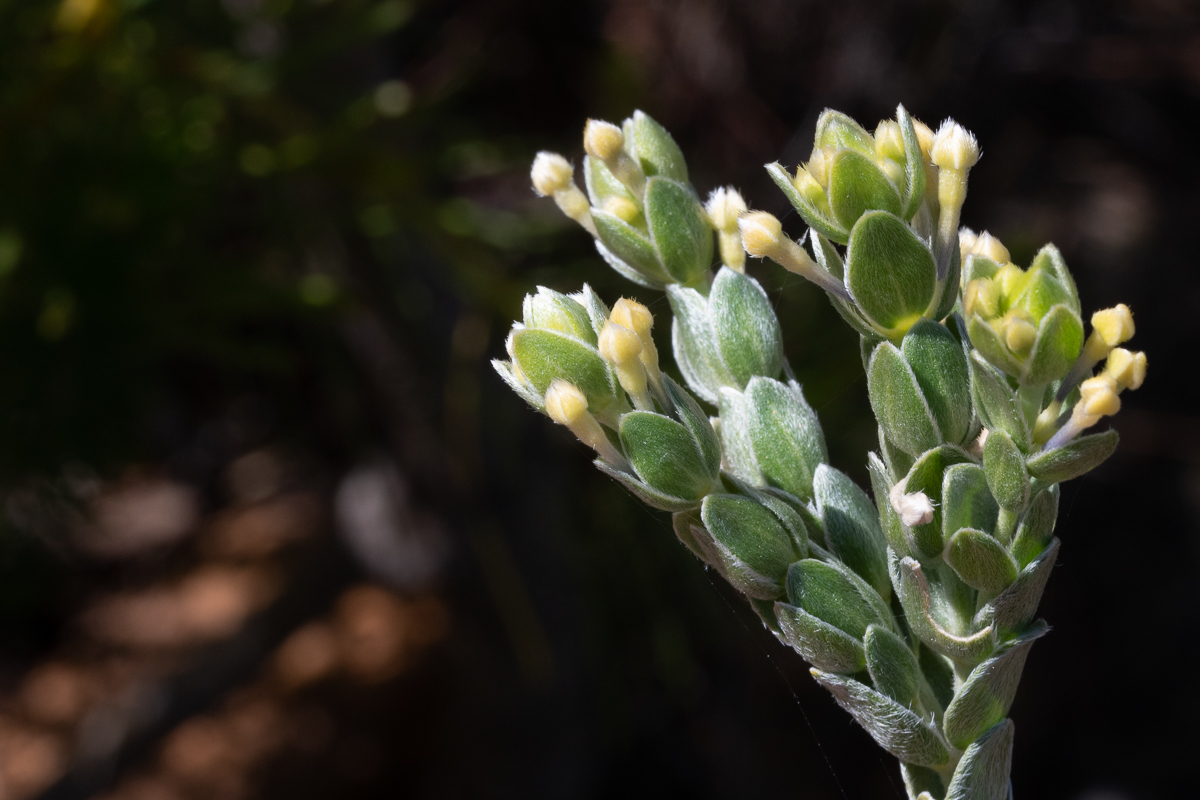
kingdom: Plantae
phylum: Tracheophyta
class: Magnoliopsida
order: Malvales
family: Thymelaeaceae
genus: Gnidia
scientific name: Gnidia anomala
